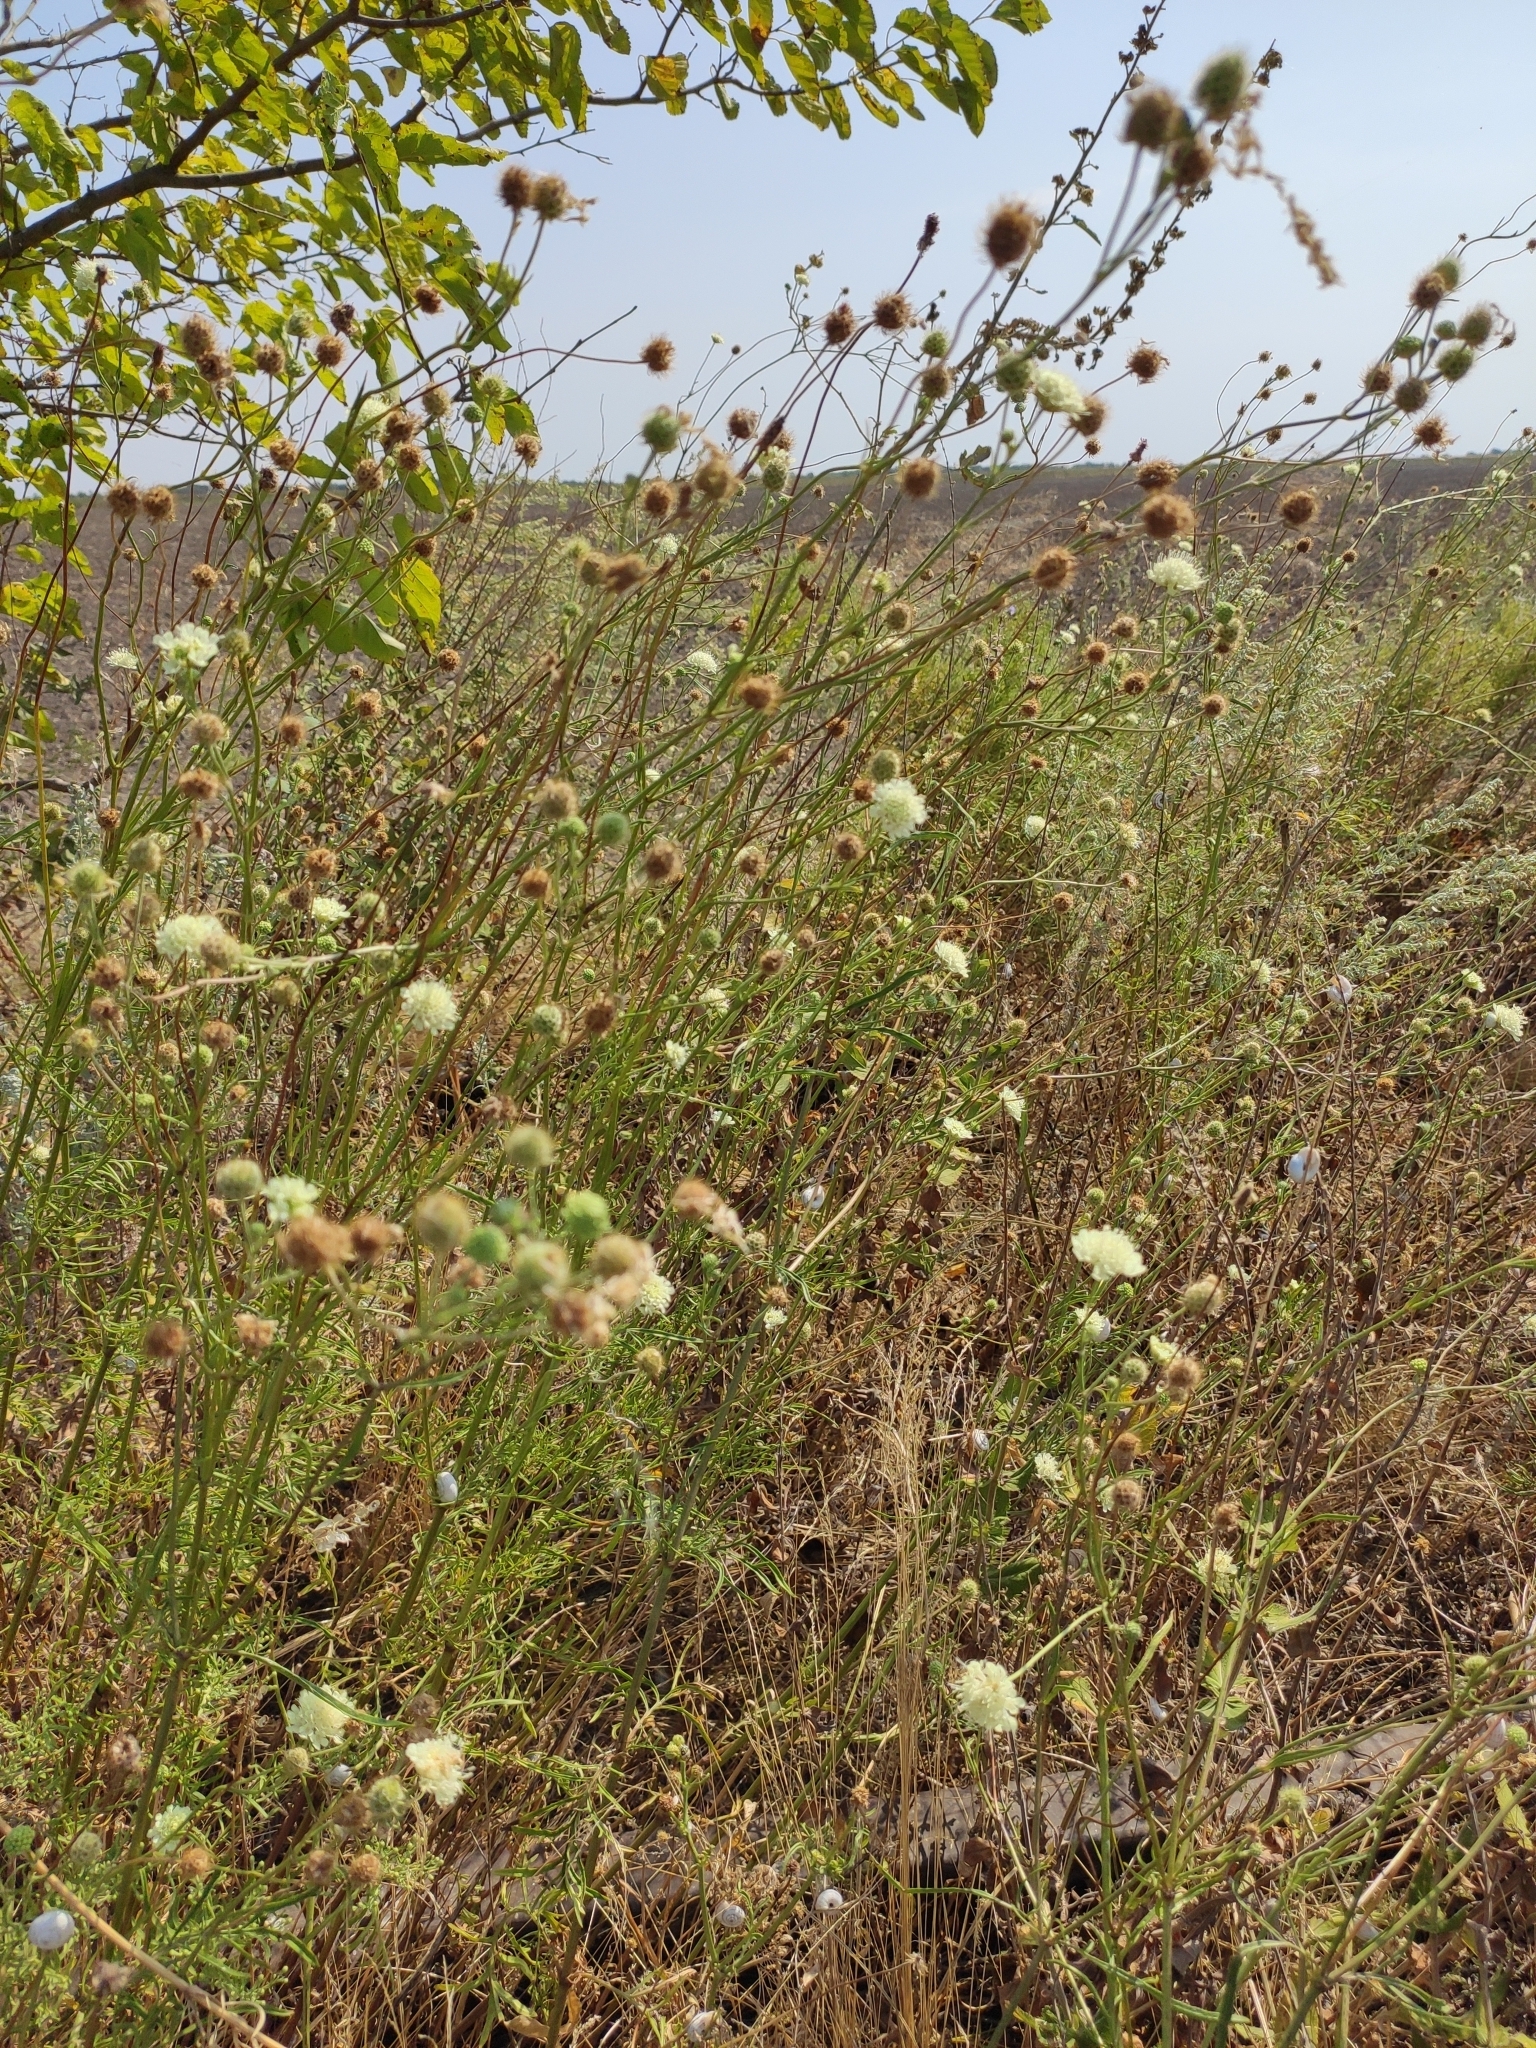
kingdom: Plantae
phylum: Tracheophyta
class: Magnoliopsida
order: Dipsacales
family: Caprifoliaceae
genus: Scabiosa
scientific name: Scabiosa ochroleuca
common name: Cream pincushions
